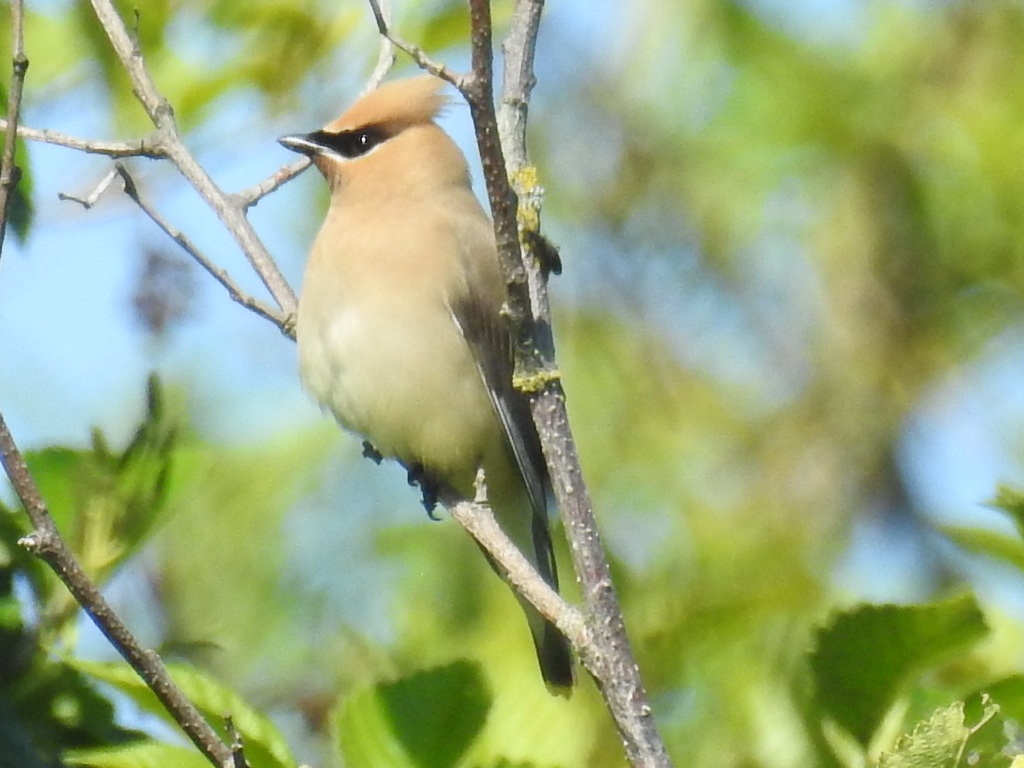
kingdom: Animalia
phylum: Chordata
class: Aves
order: Passeriformes
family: Bombycillidae
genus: Bombycilla
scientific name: Bombycilla cedrorum
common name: Cedar waxwing
